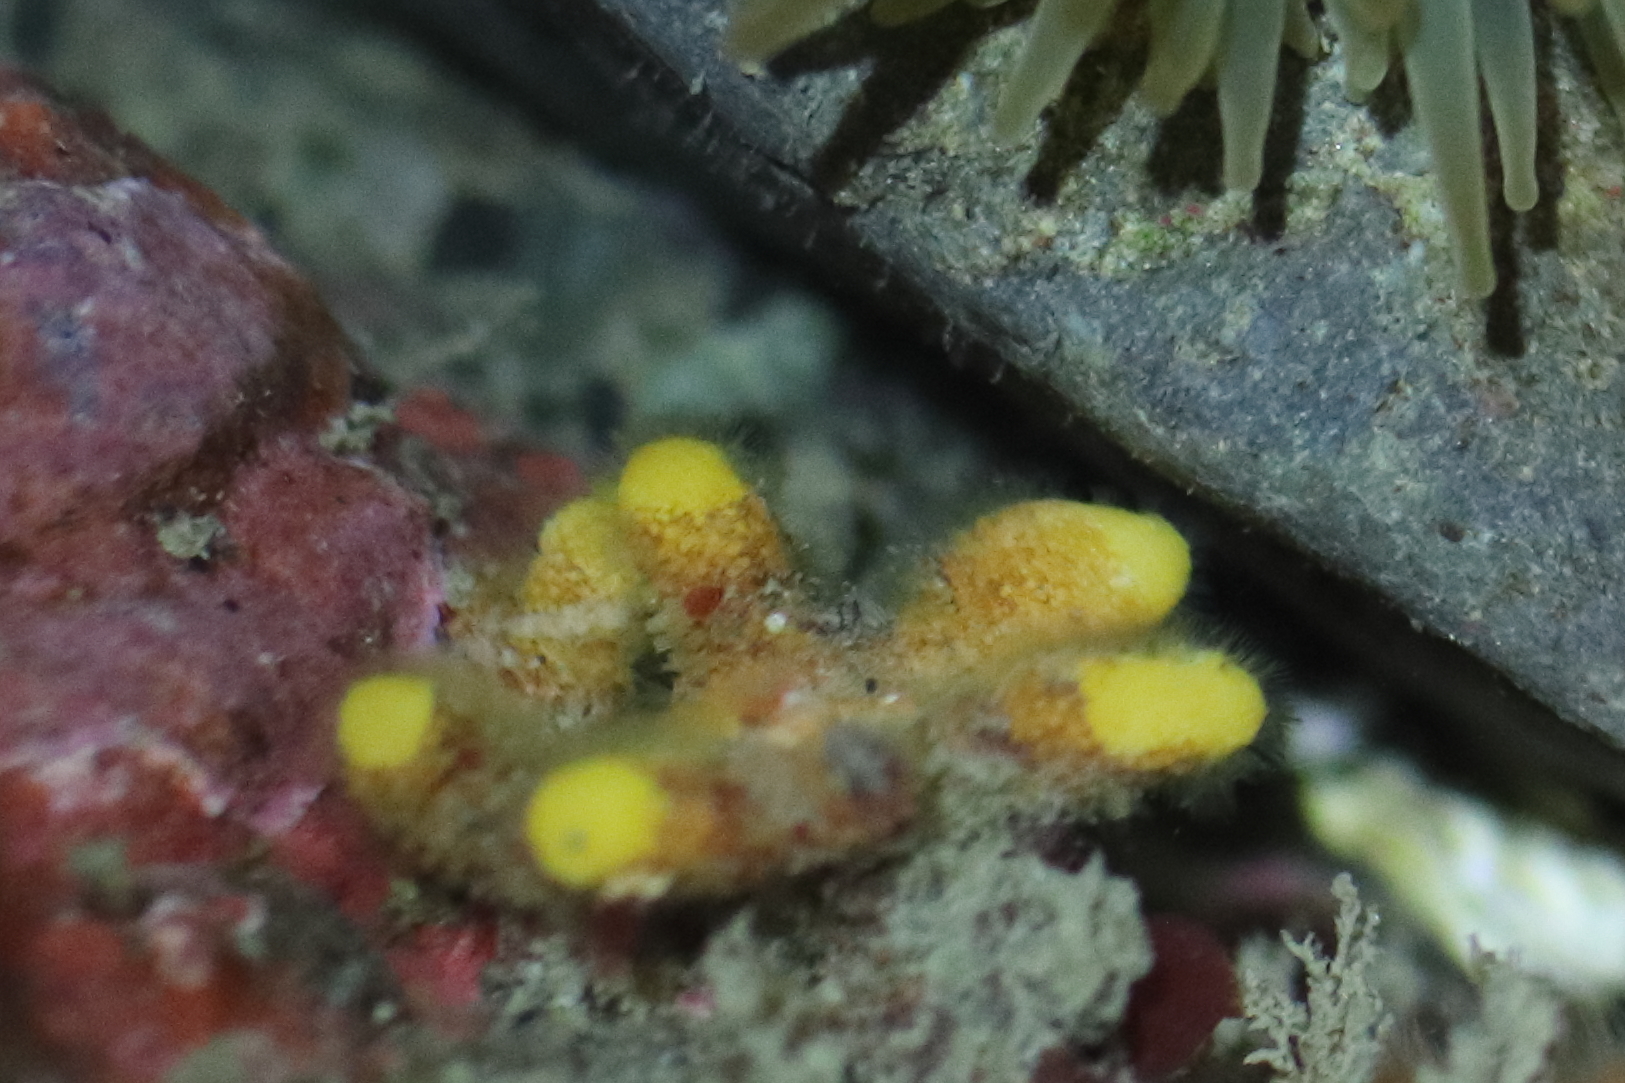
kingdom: Animalia
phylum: Bryozoa
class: Stenolaemata
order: Cyclostomatida
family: Heteroporidae
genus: Heteropora
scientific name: Heteropora pacifica
